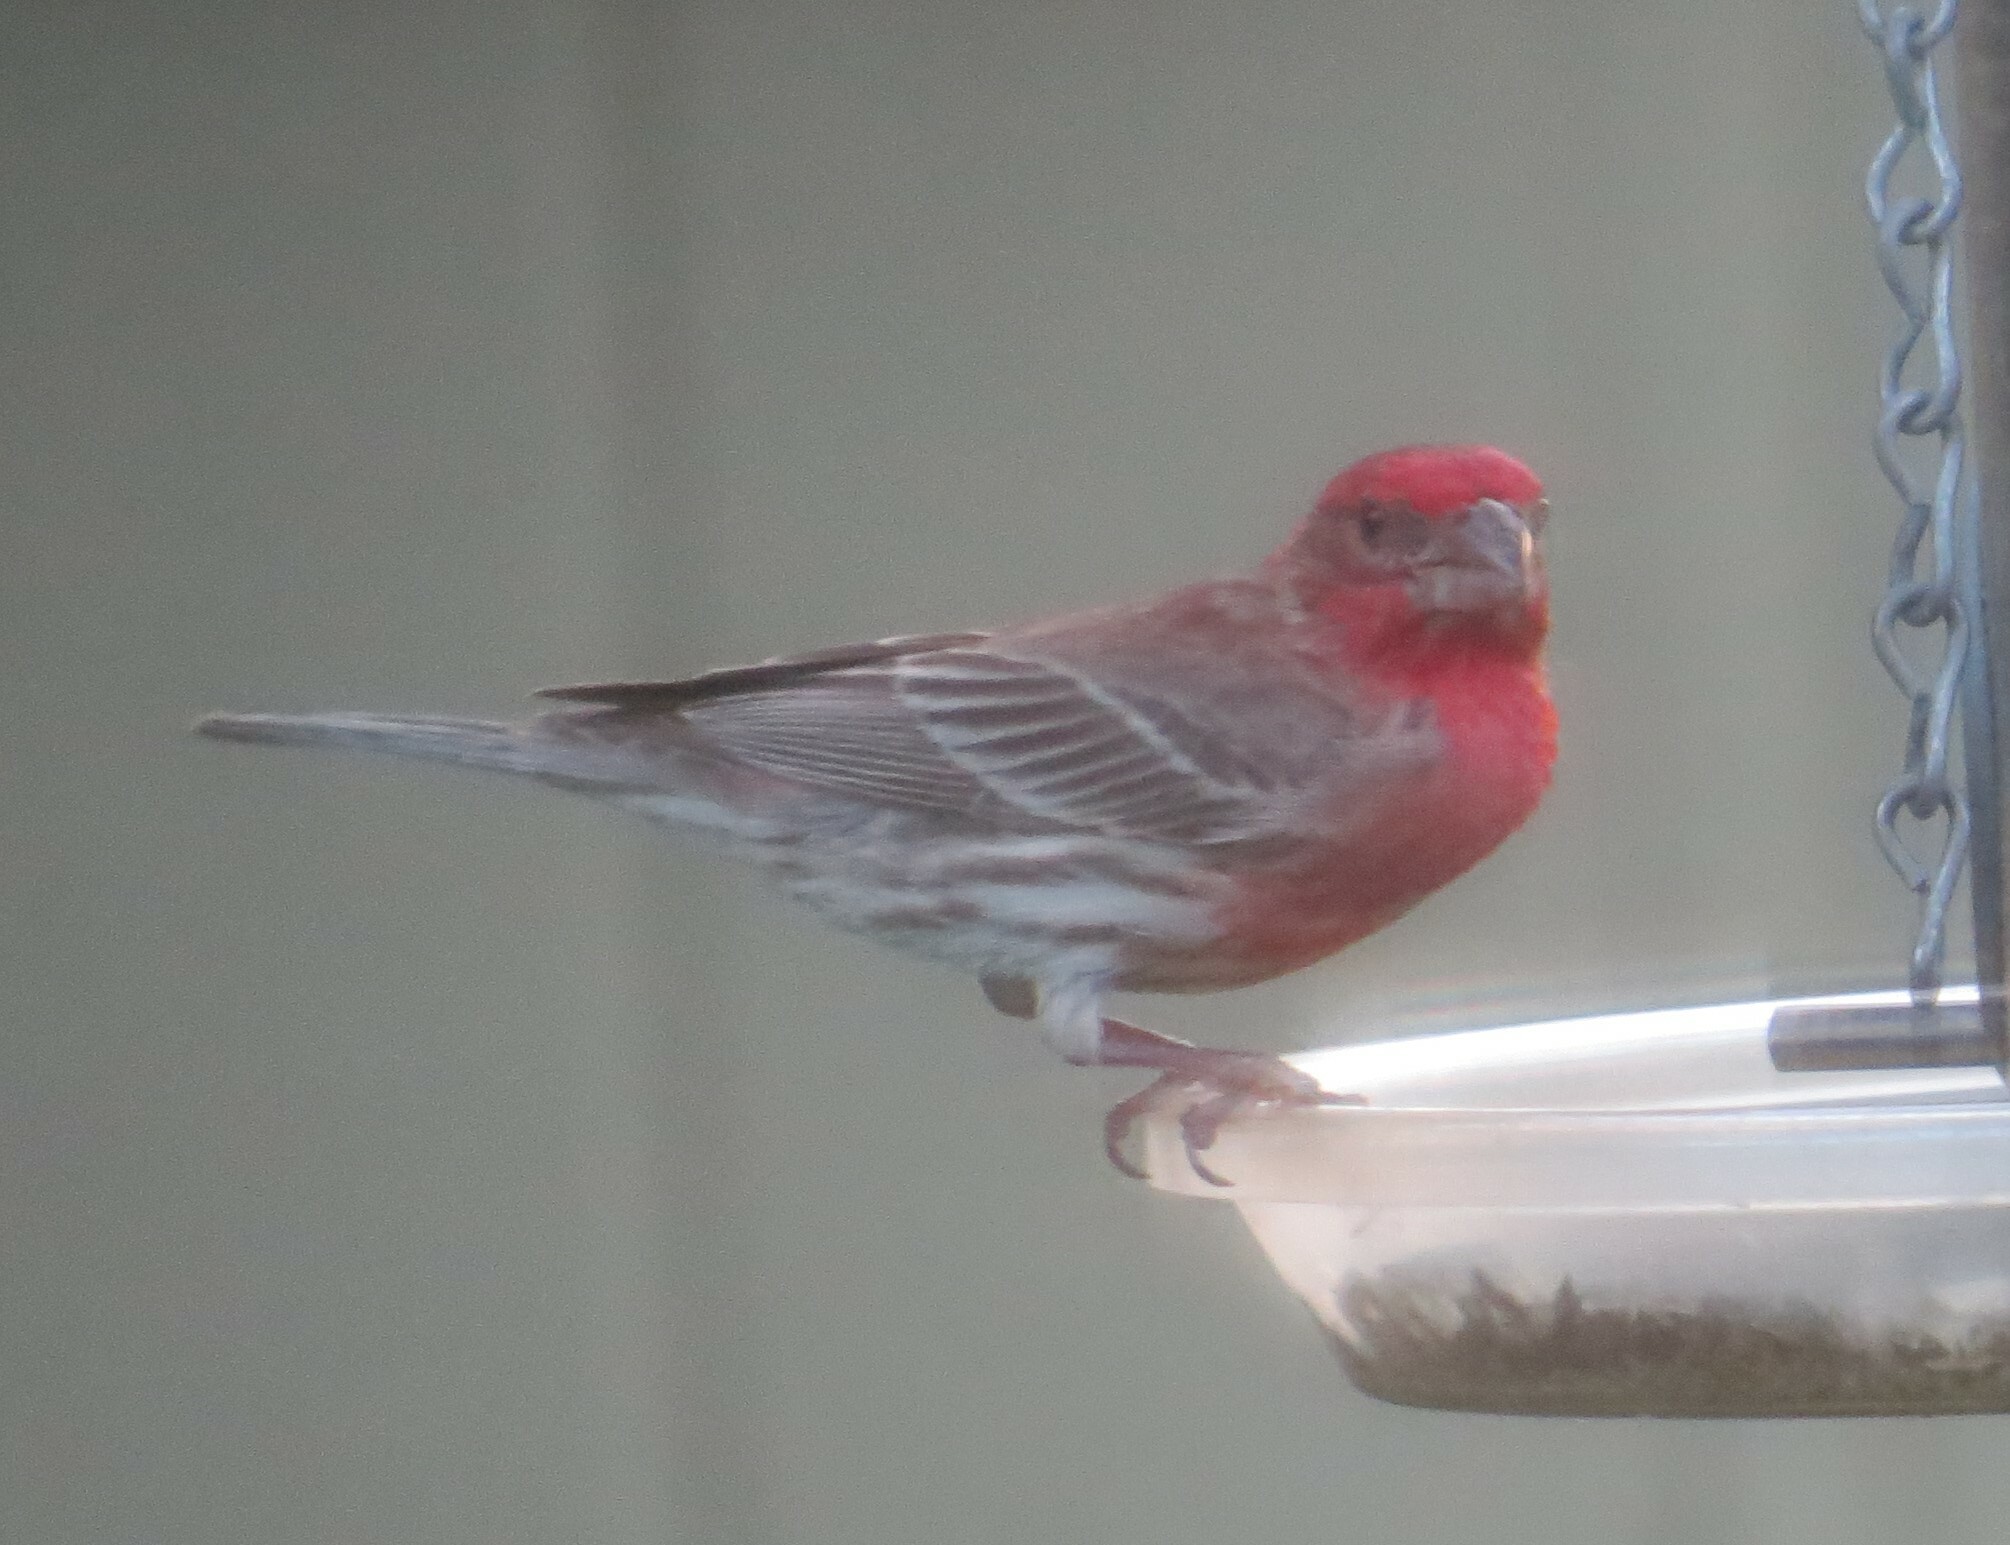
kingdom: Animalia
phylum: Chordata
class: Aves
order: Passeriformes
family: Fringillidae
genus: Haemorhous
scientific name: Haemorhous mexicanus
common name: House finch
